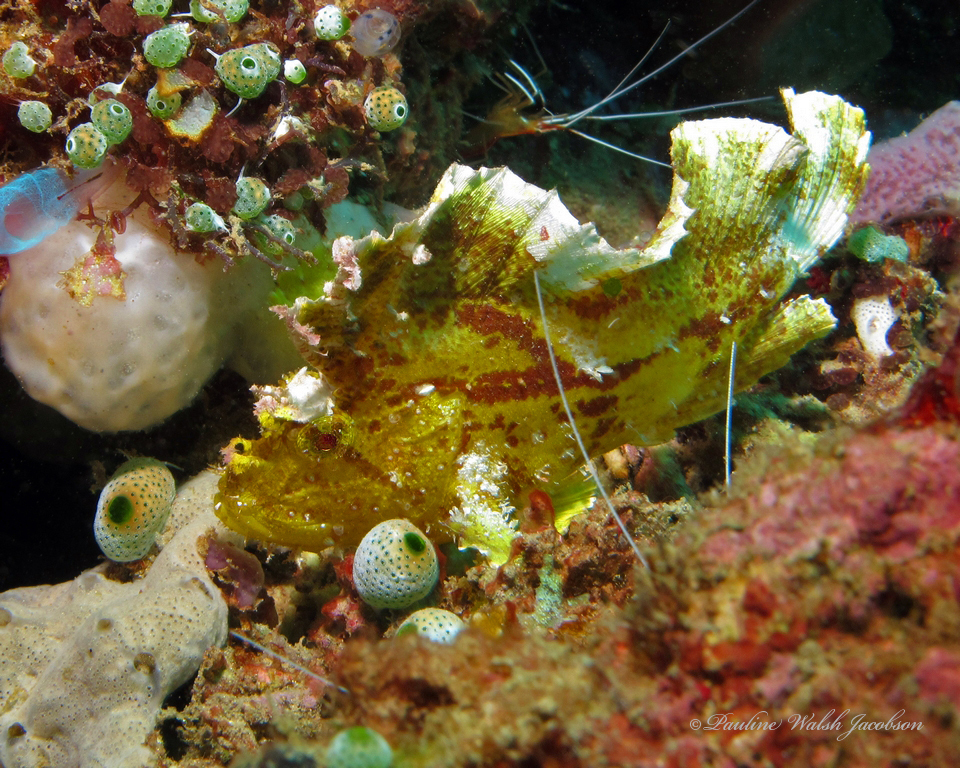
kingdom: Animalia
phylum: Chordata
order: Scorpaeniformes
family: Scorpaenidae
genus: Taenianotus
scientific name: Taenianotus triacanthus
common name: Leaf scorpionfish
